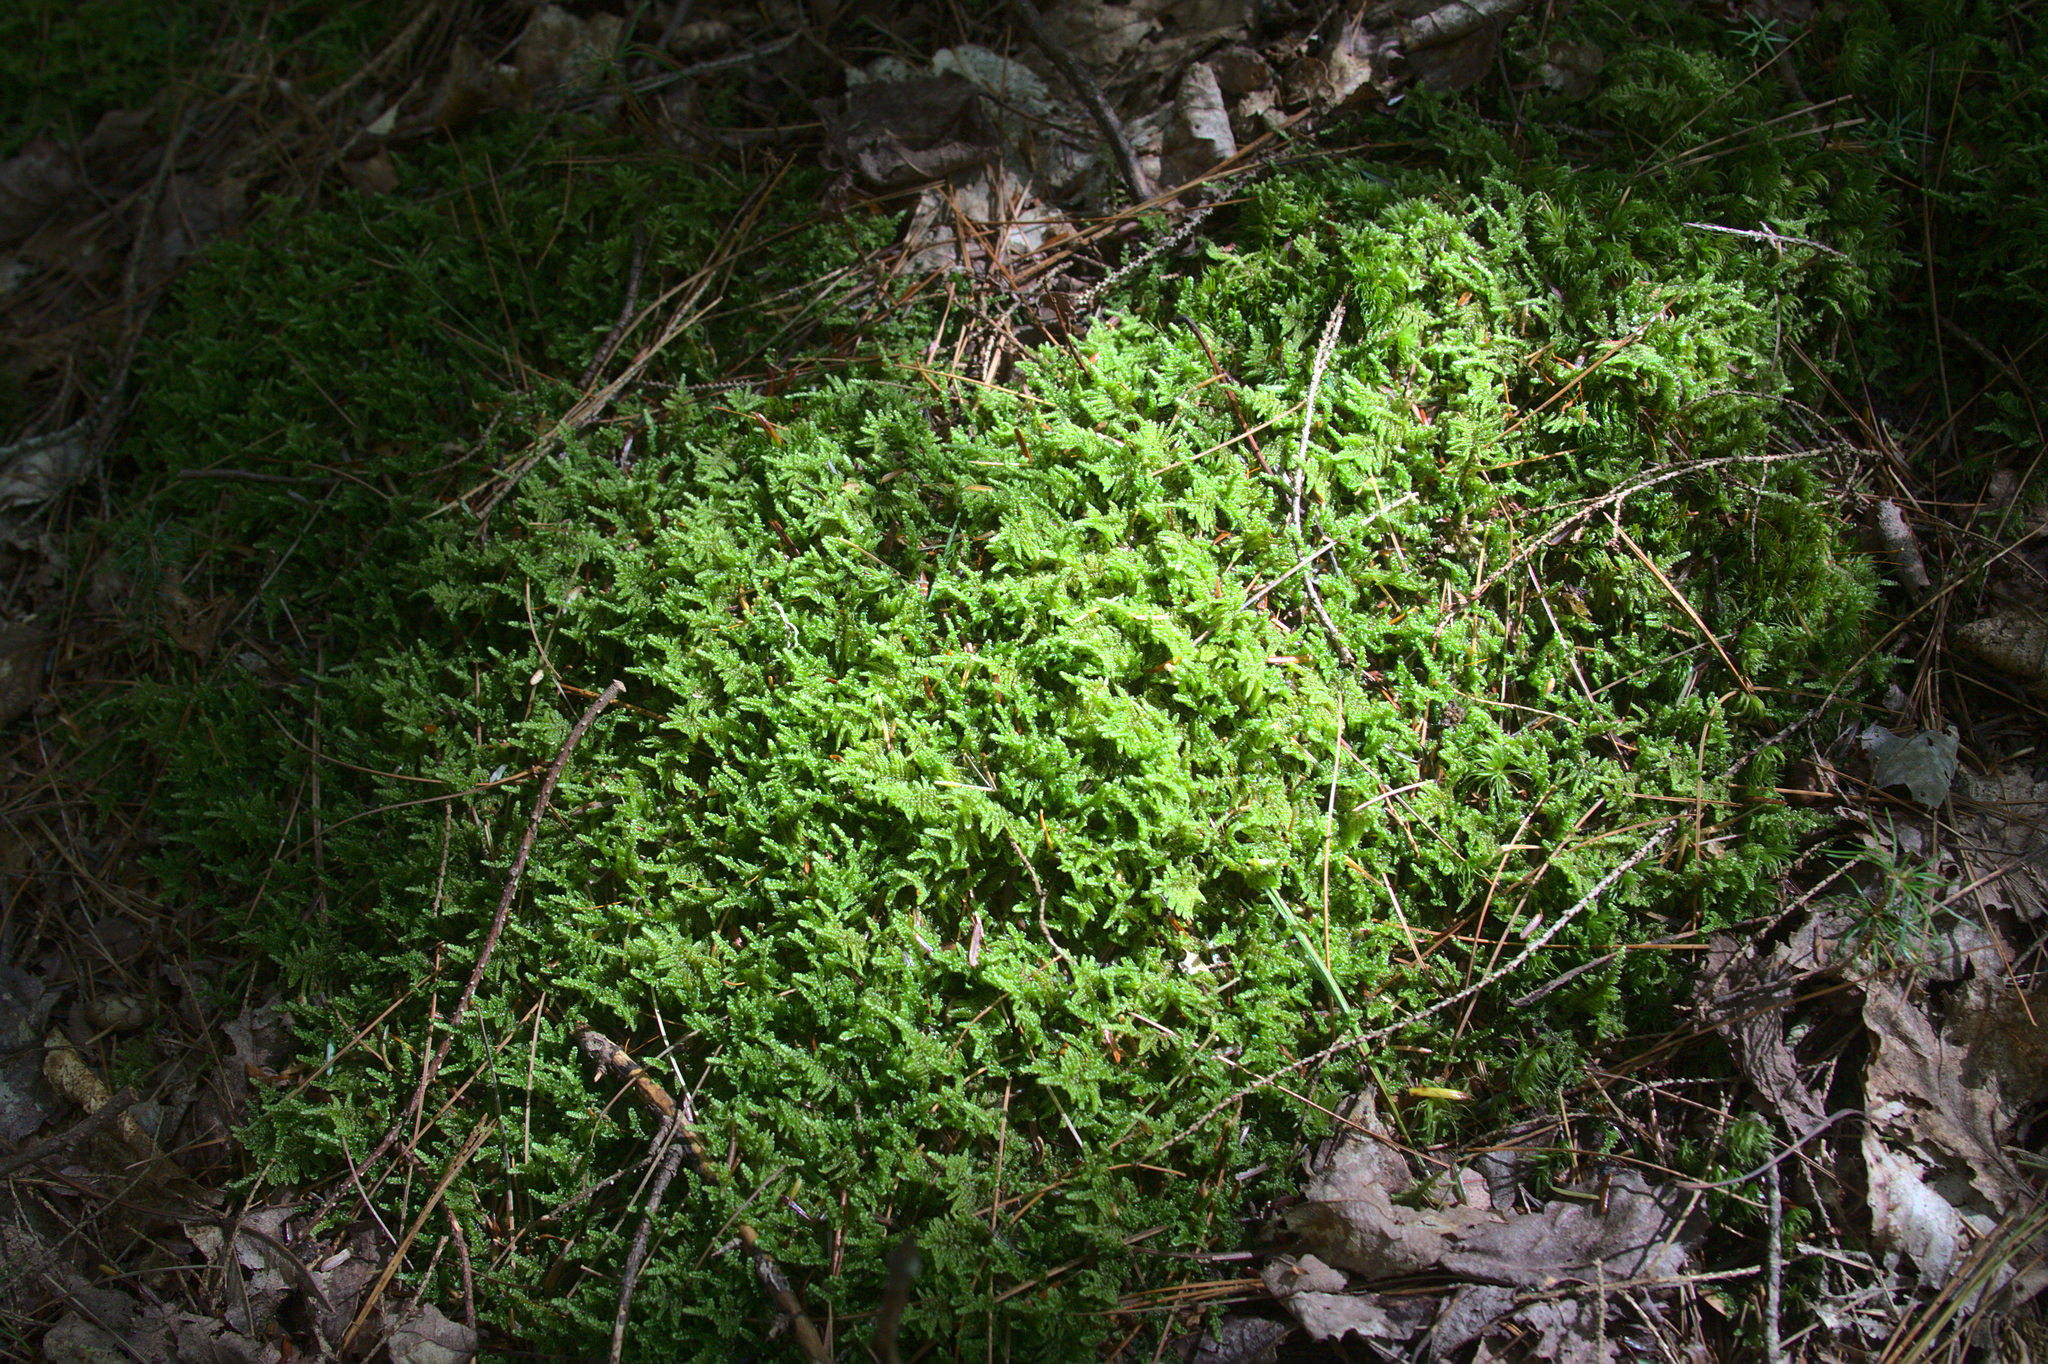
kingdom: Plantae
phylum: Bryophyta
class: Bryopsida
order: Hypnales
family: Callicladiaceae
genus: Callicladium
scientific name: Callicladium imponens
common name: Brocade moss
